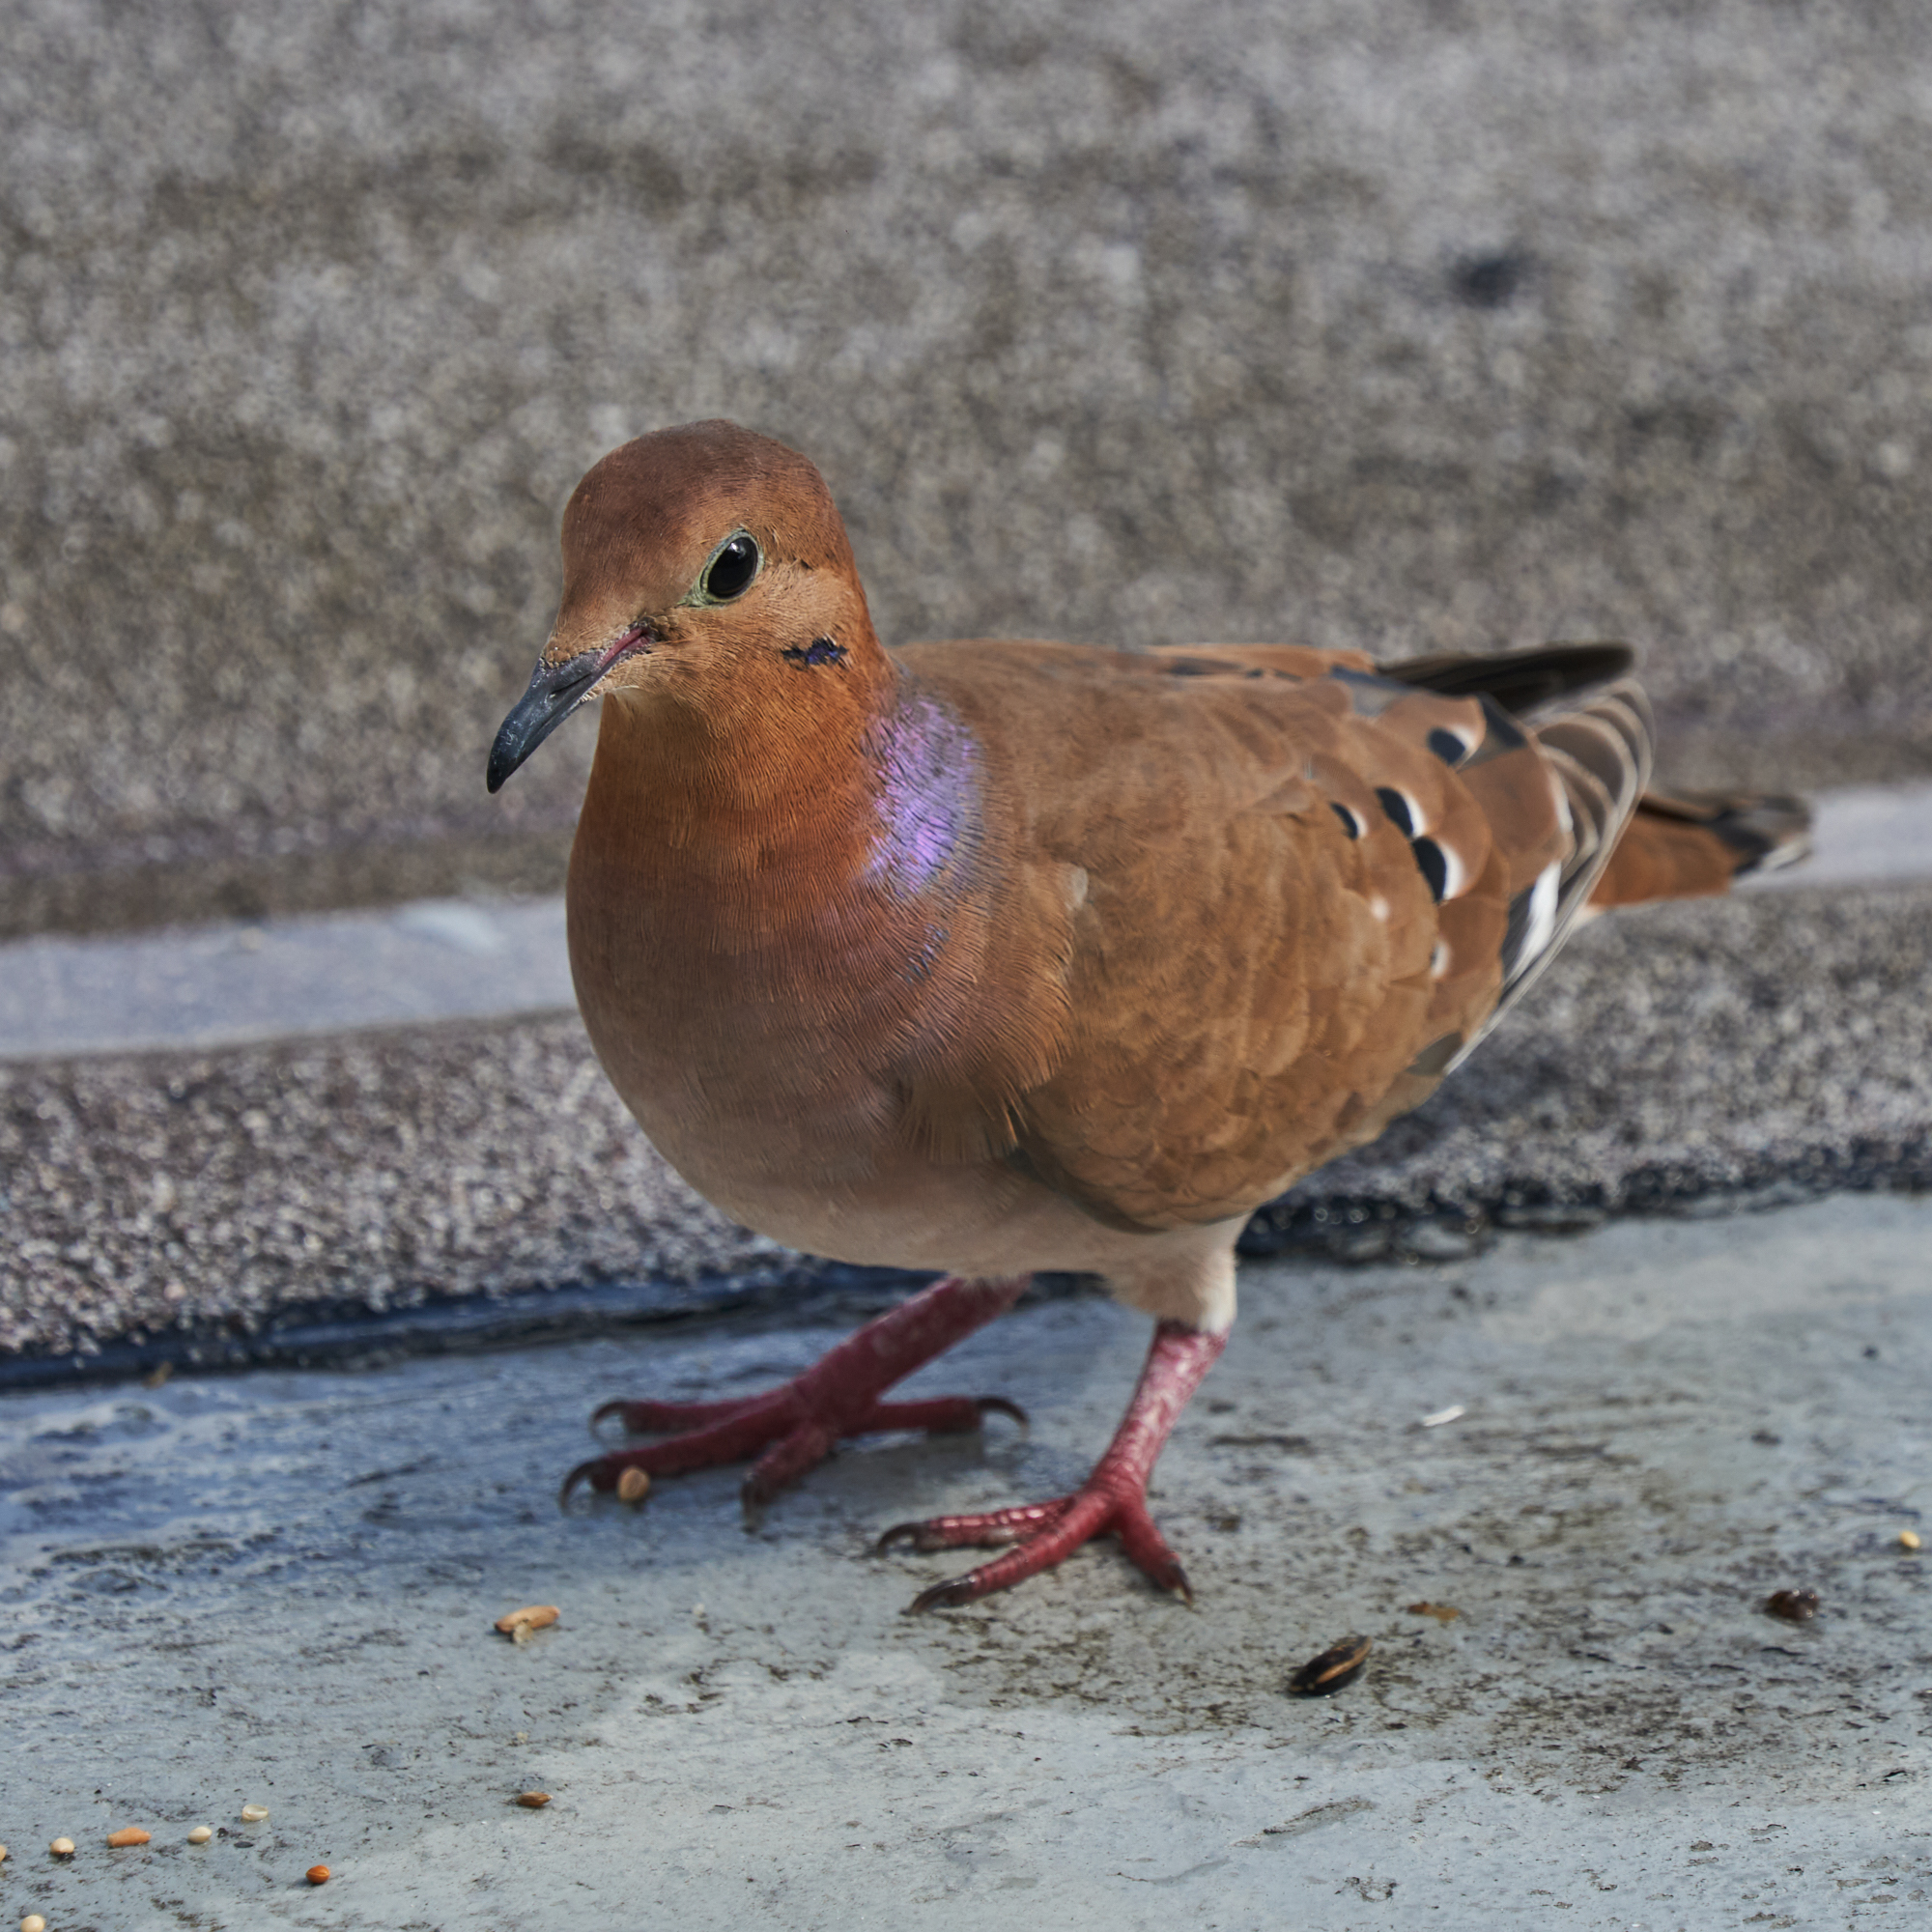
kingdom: Animalia
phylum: Chordata
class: Aves
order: Columbiformes
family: Columbidae
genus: Zenaida
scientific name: Zenaida aurita
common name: Zenaida dove
